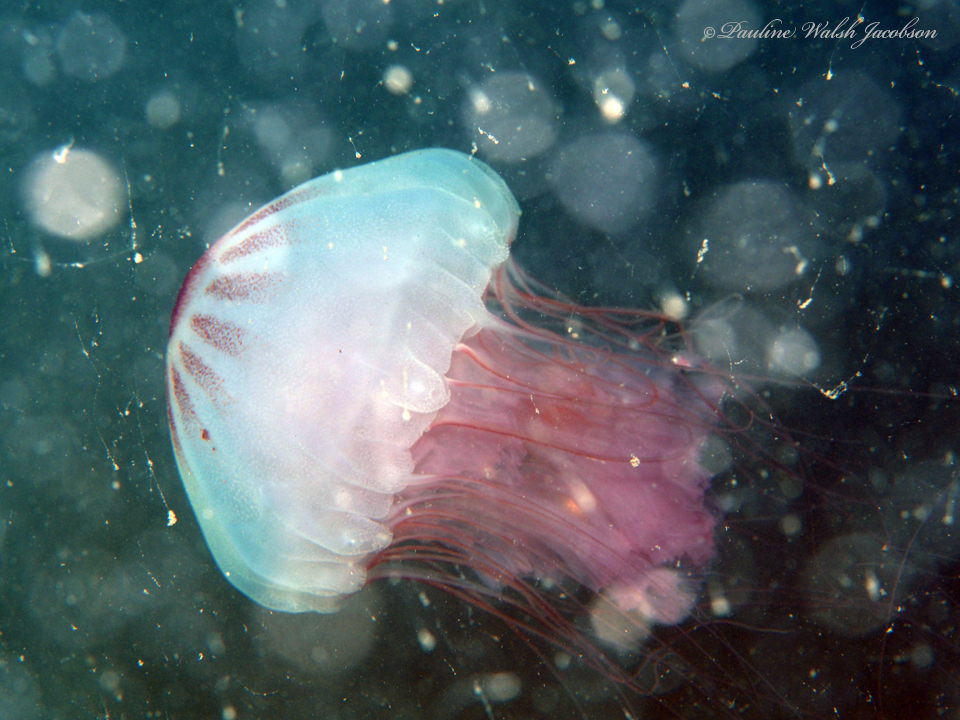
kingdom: Animalia
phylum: Cnidaria
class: Scyphozoa
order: Semaeostomeae
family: Pelagiidae
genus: Chrysaora
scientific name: Chrysaora quinquecirrha
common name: Atlantic sea nettle
